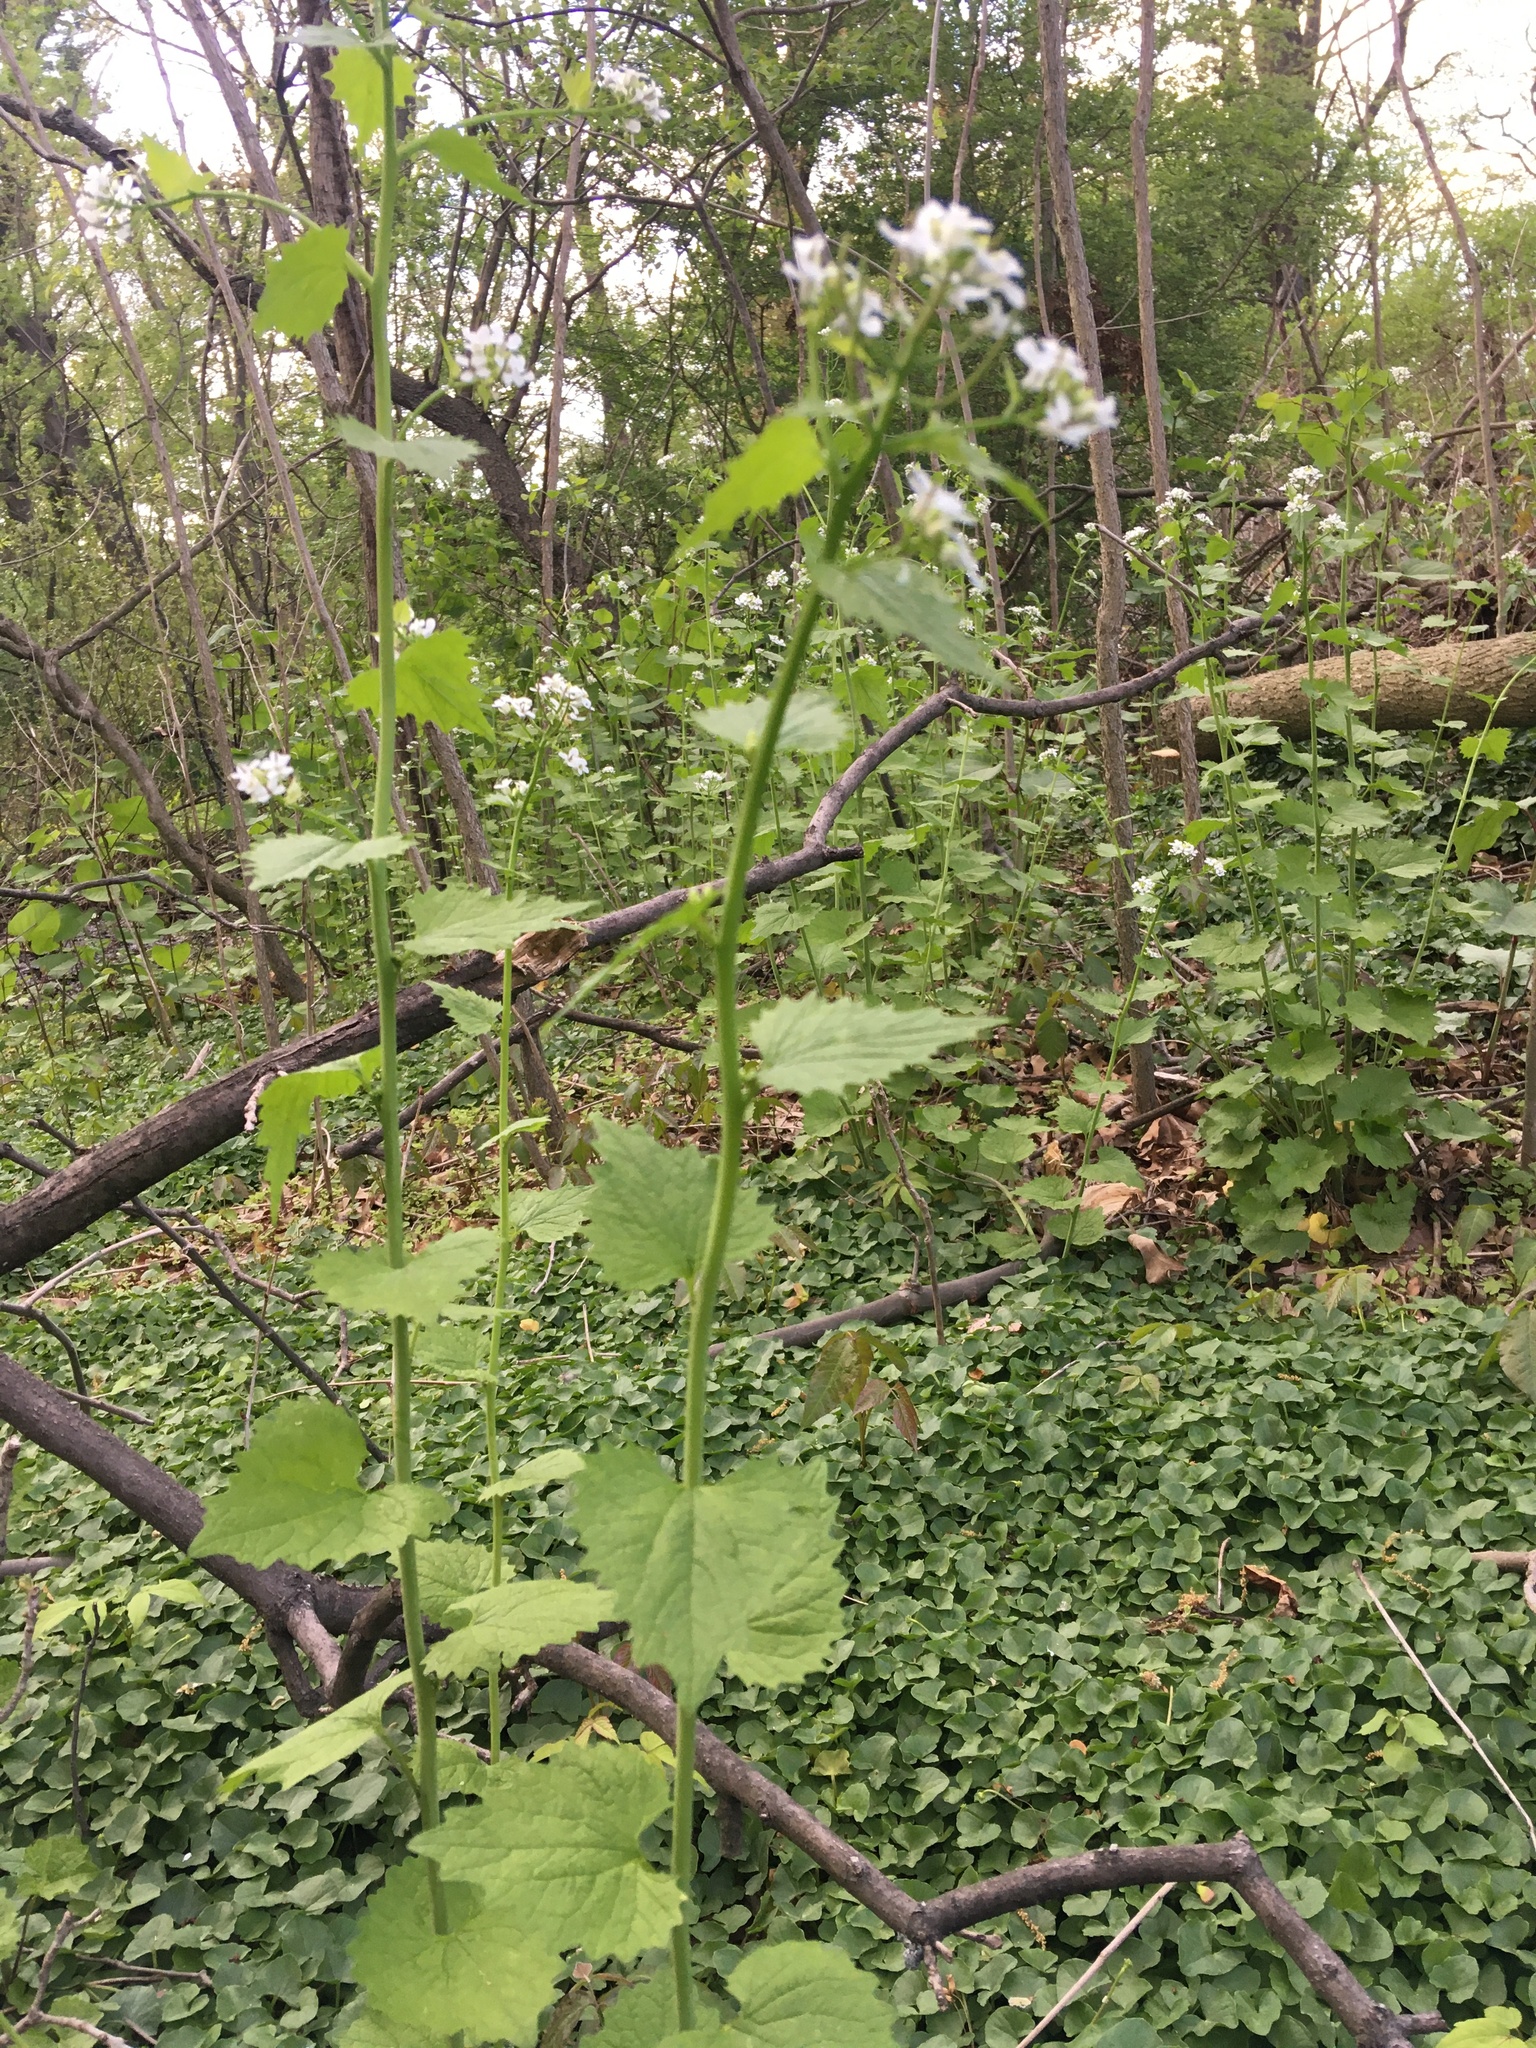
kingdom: Plantae
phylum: Tracheophyta
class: Magnoliopsida
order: Brassicales
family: Brassicaceae
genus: Alliaria
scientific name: Alliaria petiolata
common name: Garlic mustard
